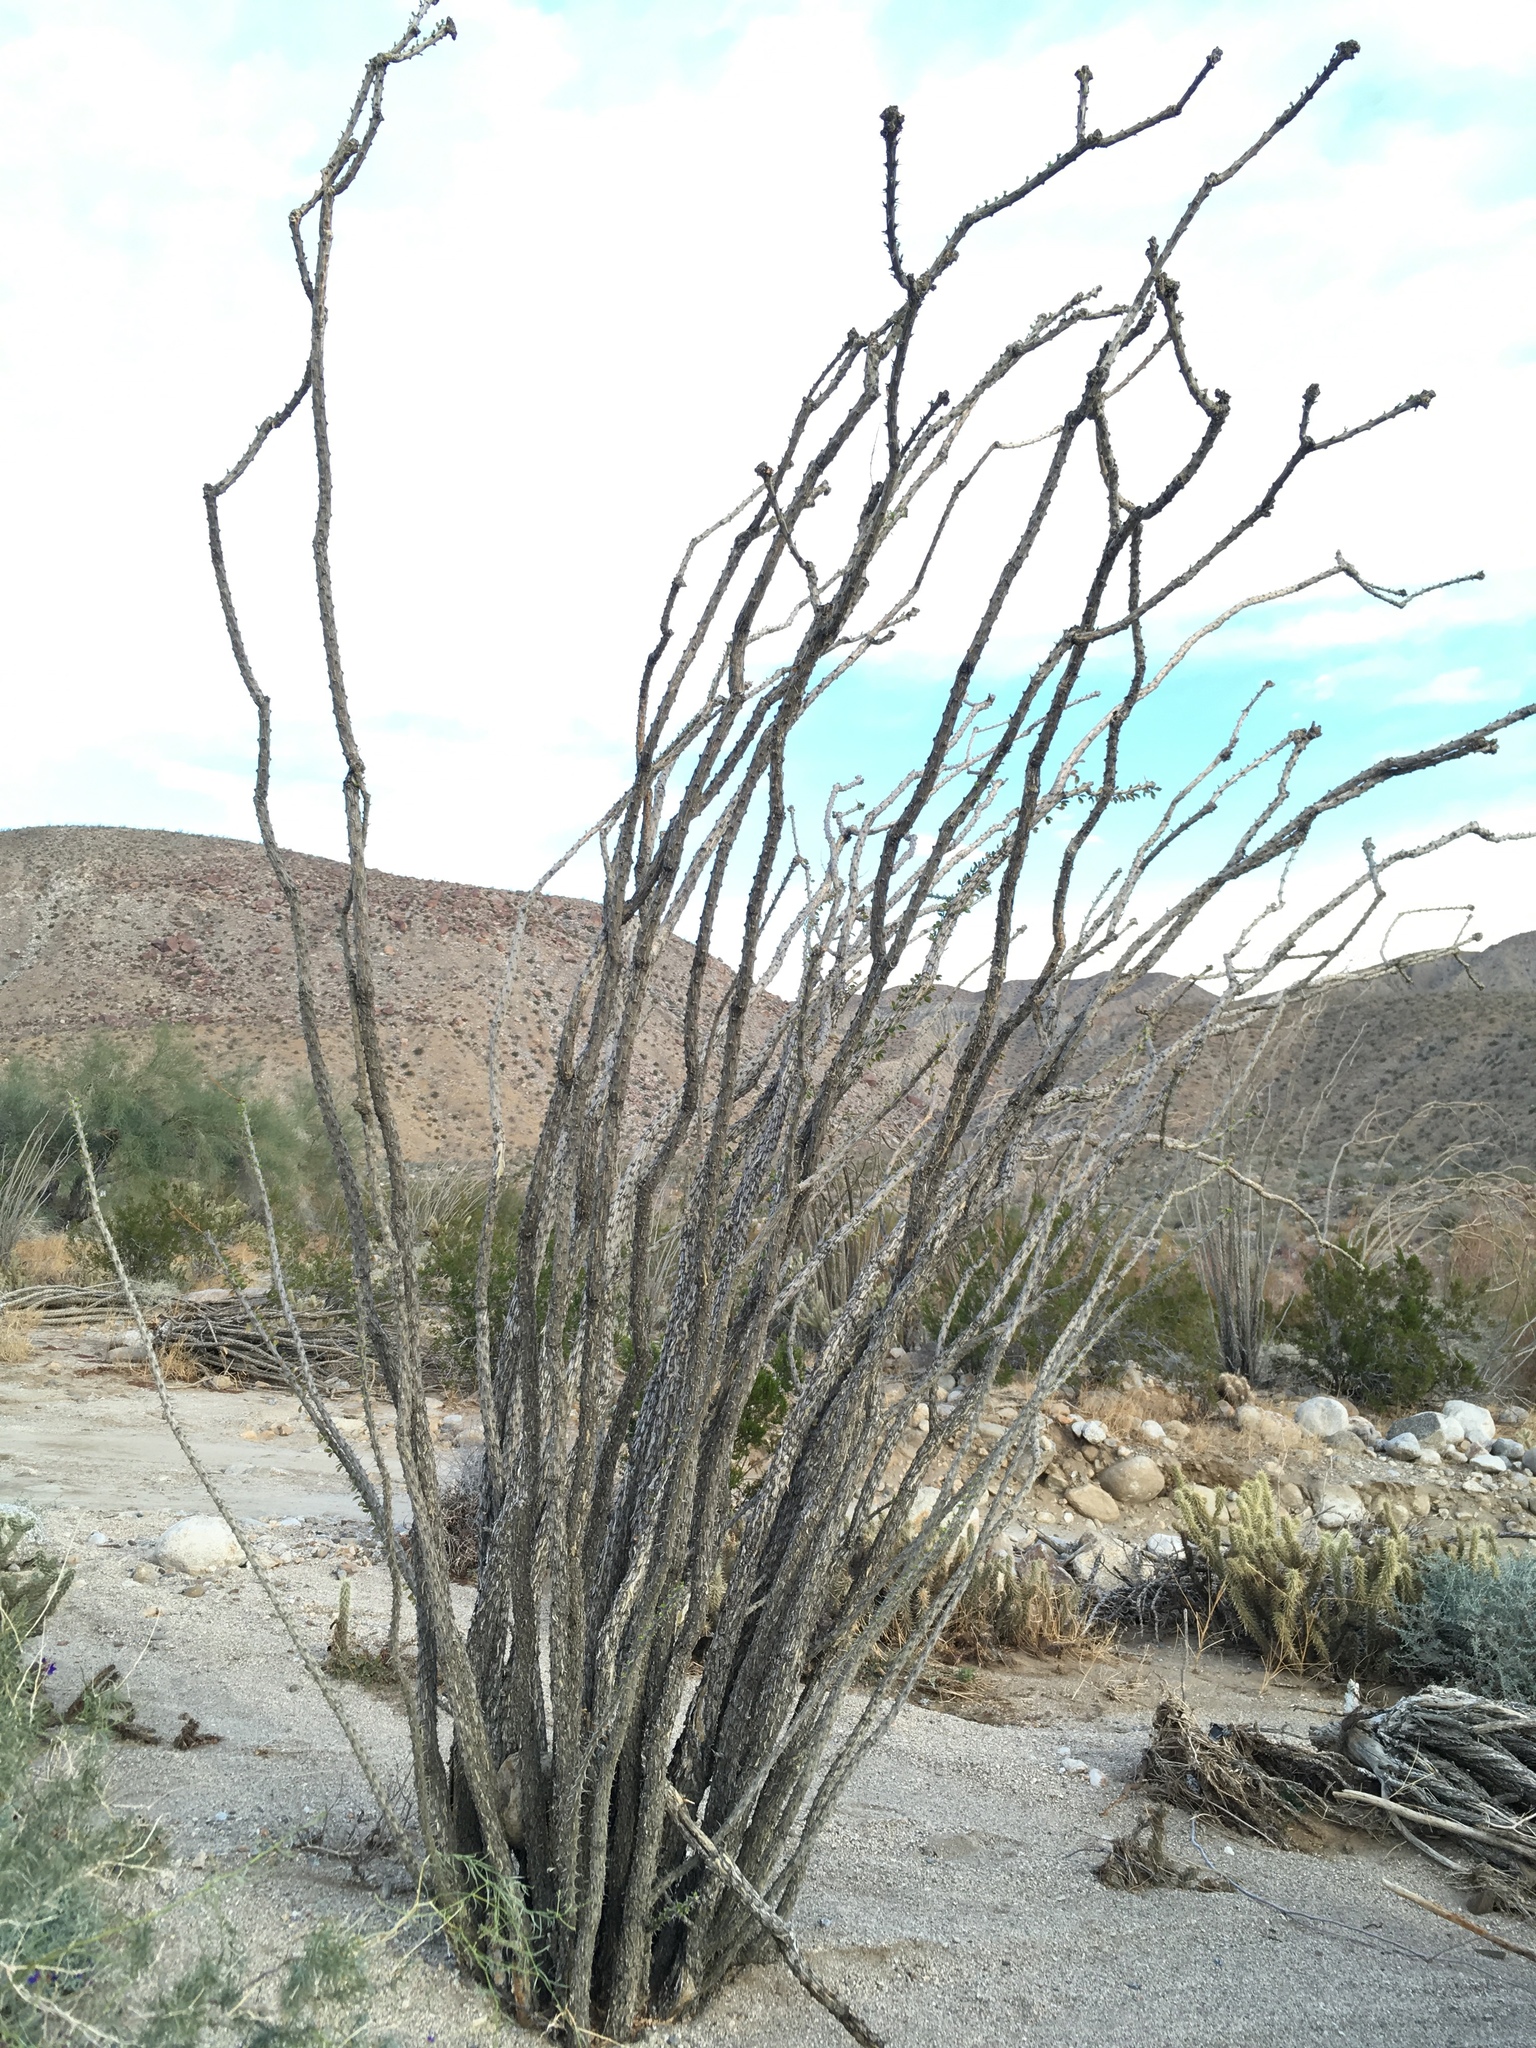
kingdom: Plantae
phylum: Tracheophyta
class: Magnoliopsida
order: Ericales
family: Fouquieriaceae
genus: Fouquieria
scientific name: Fouquieria splendens
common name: Vine-cactus
